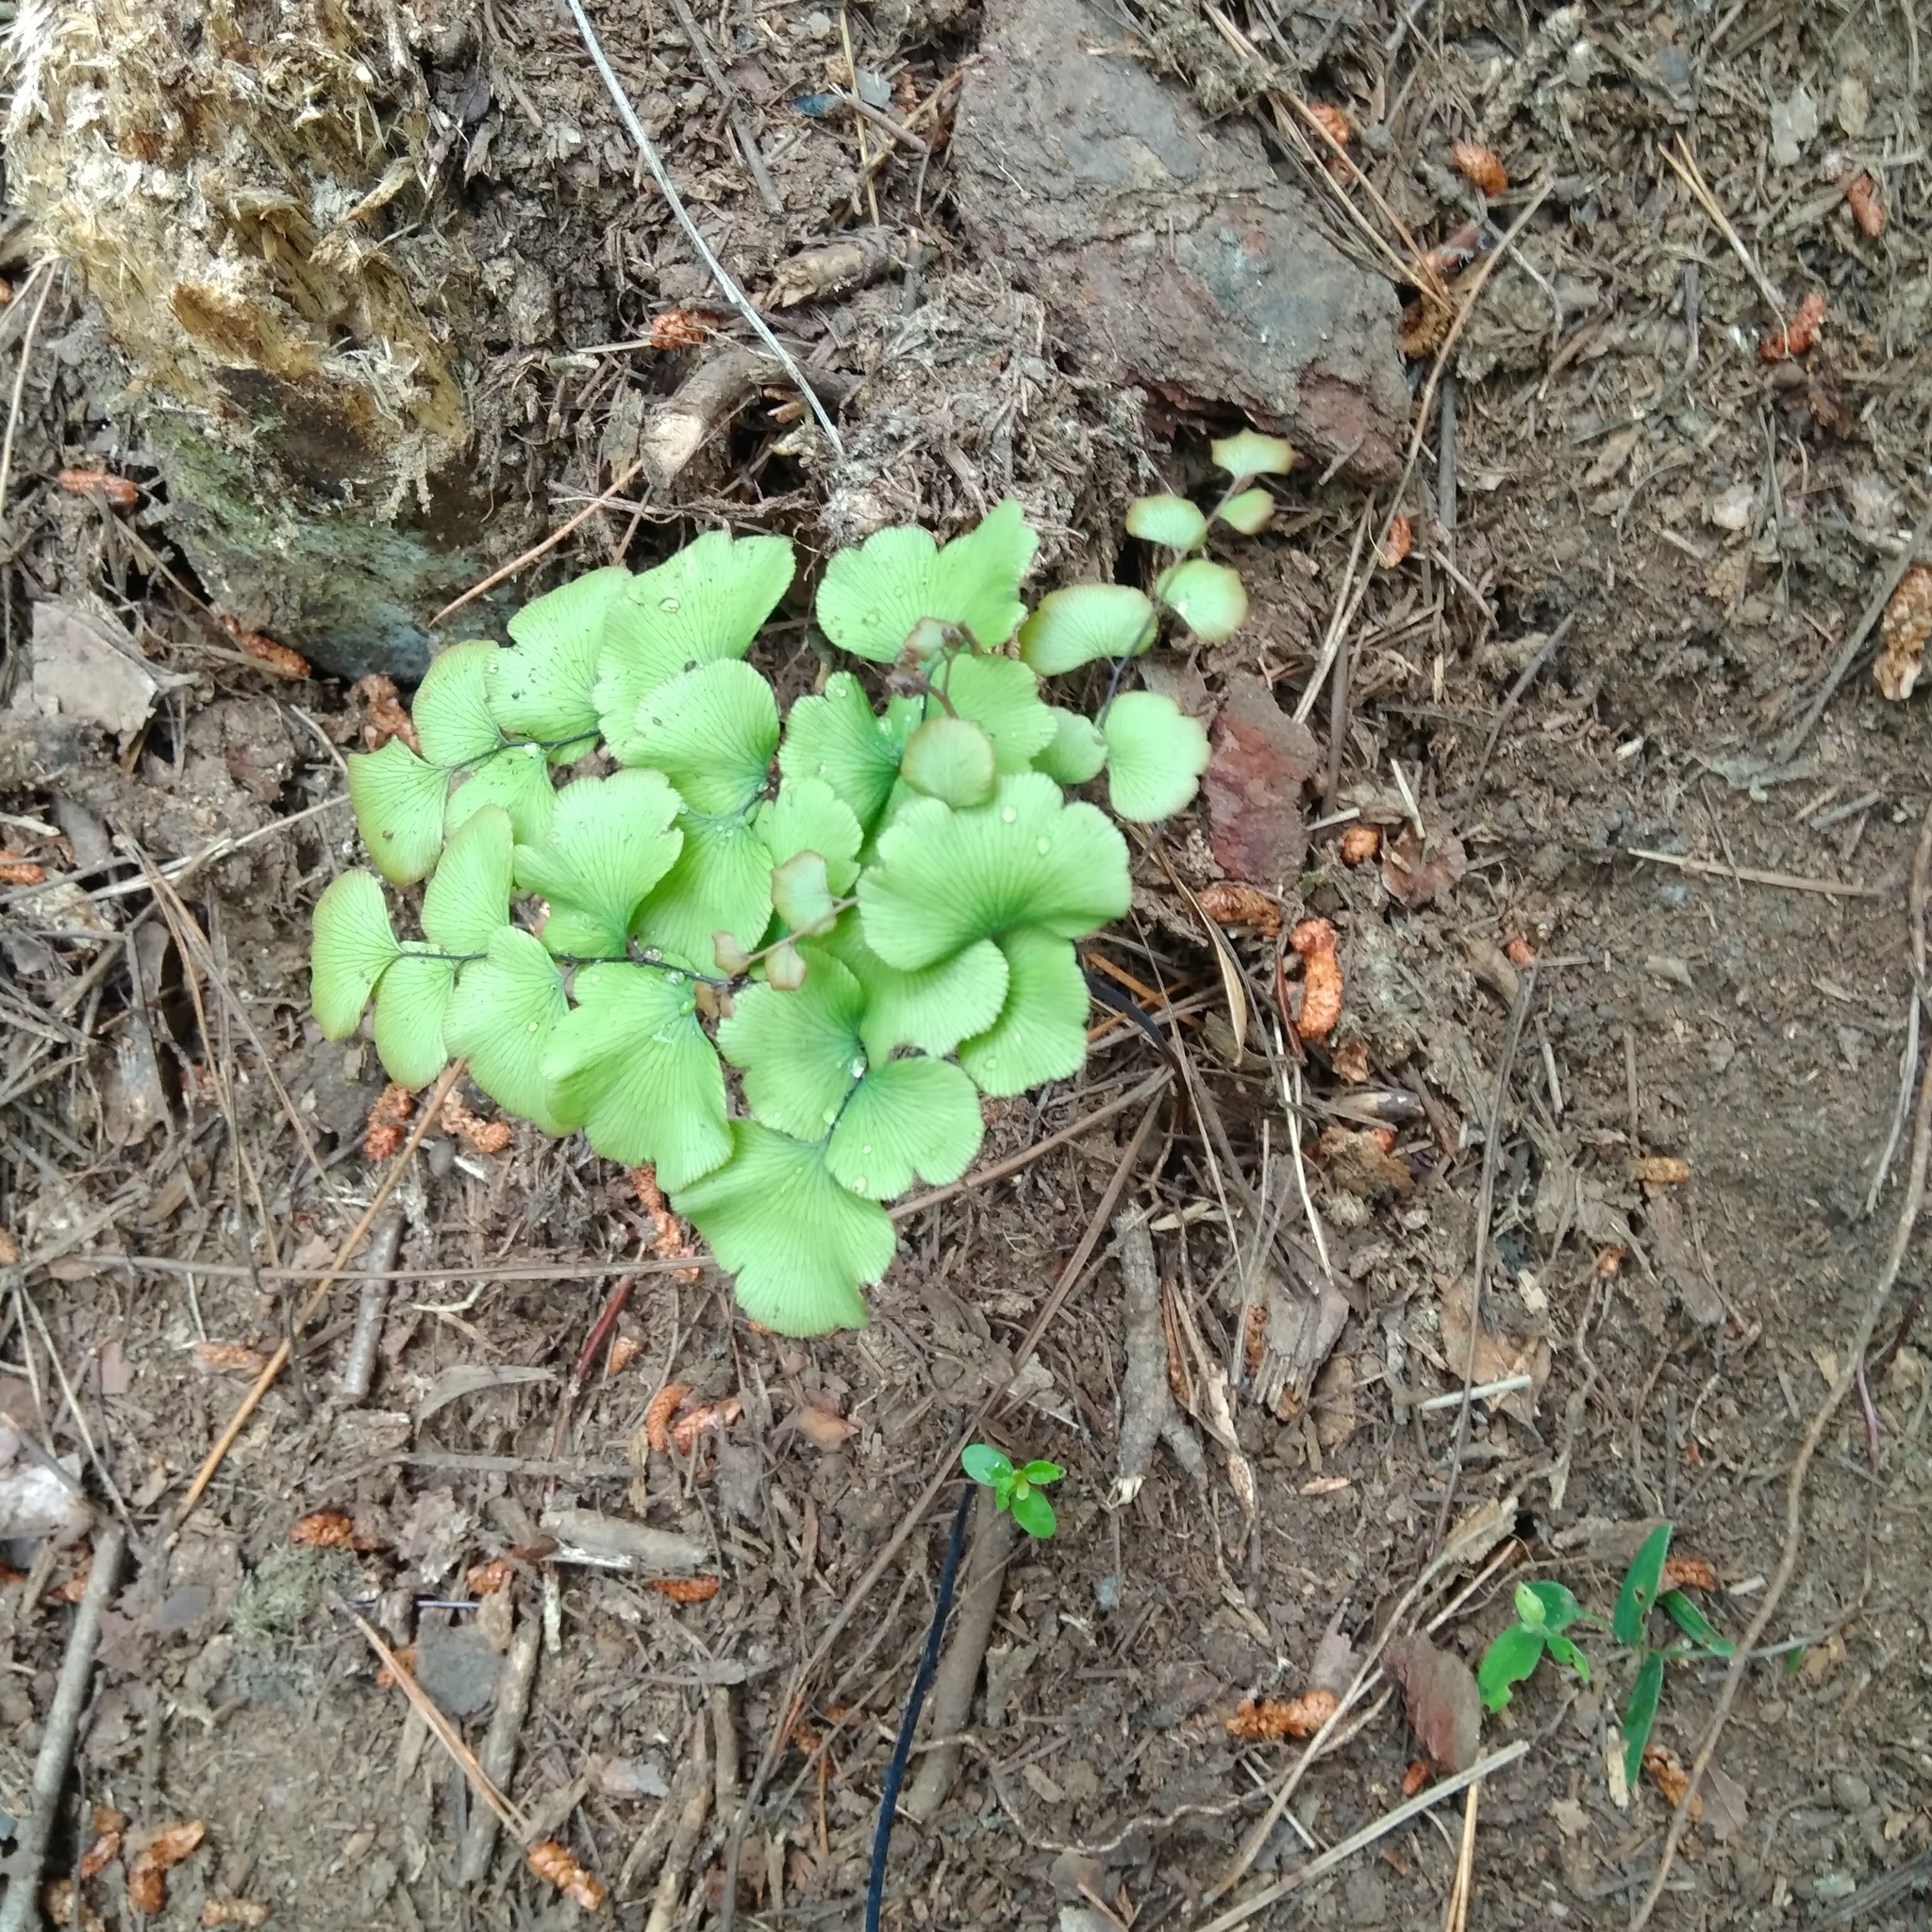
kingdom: Plantae
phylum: Tracheophyta
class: Polypodiopsida
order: Polypodiales
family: Pteridaceae
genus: Adiantum
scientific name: Adiantum chilense
